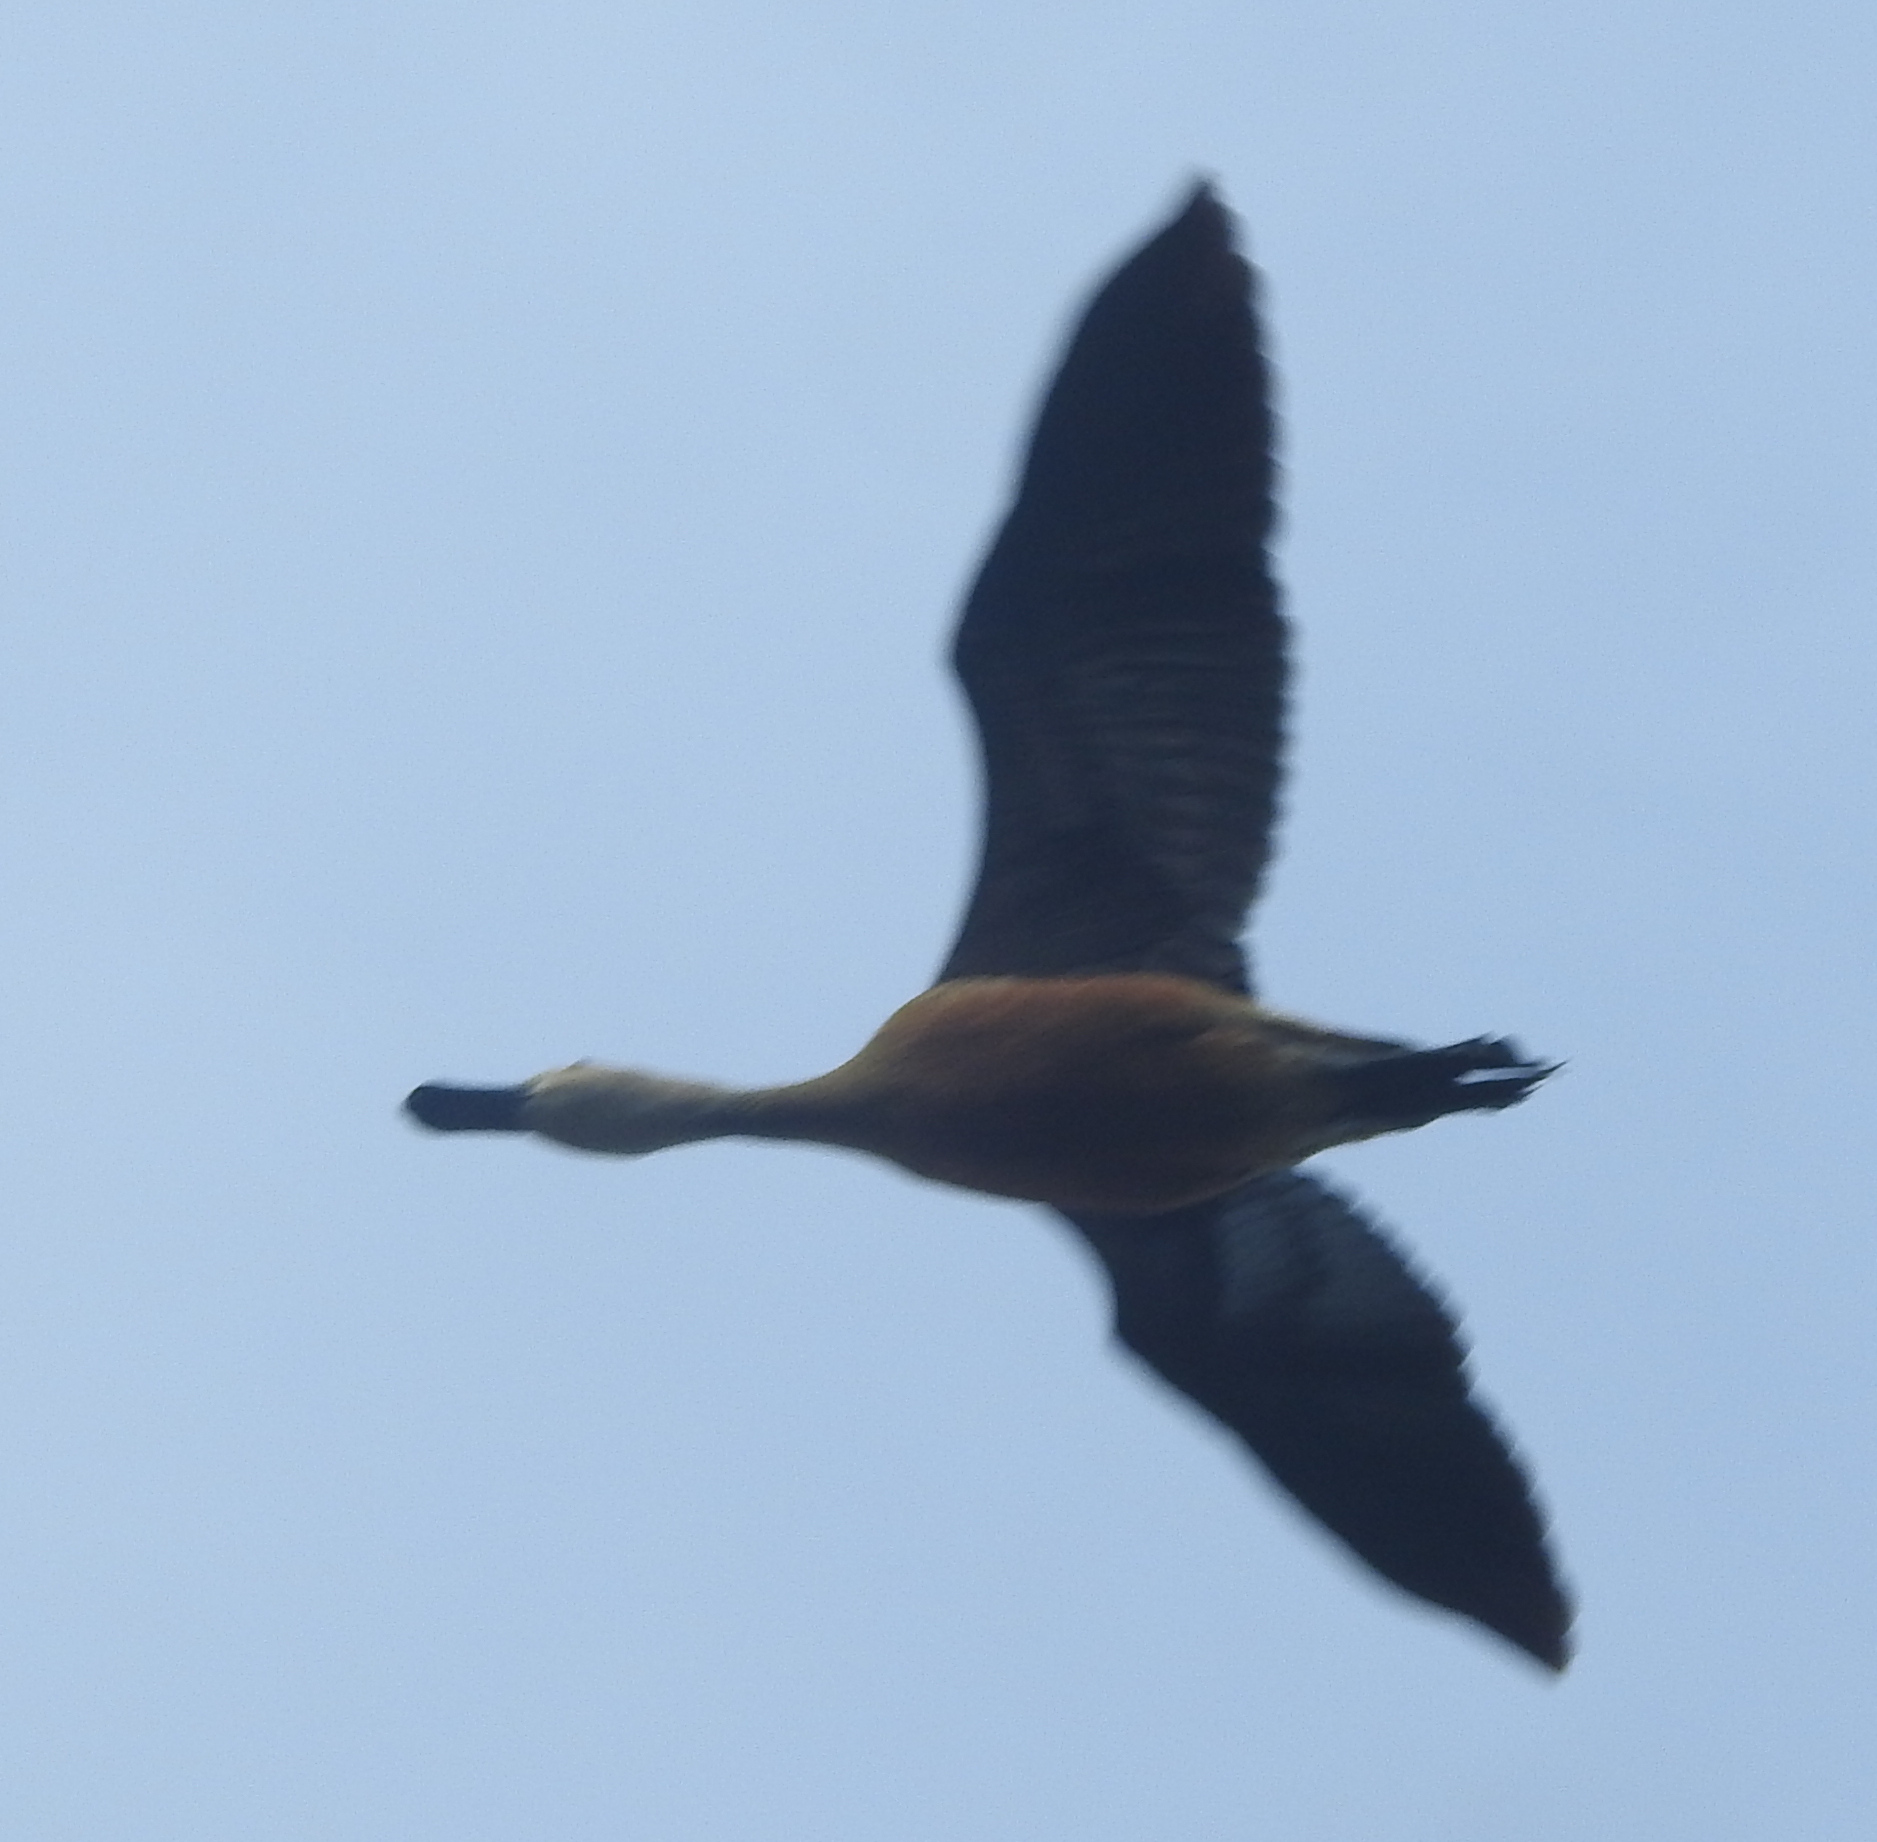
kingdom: Animalia
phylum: Chordata
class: Aves
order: Anseriformes
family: Anatidae
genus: Dendrocygna
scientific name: Dendrocygna javanica
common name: Lesser whistling-duck
